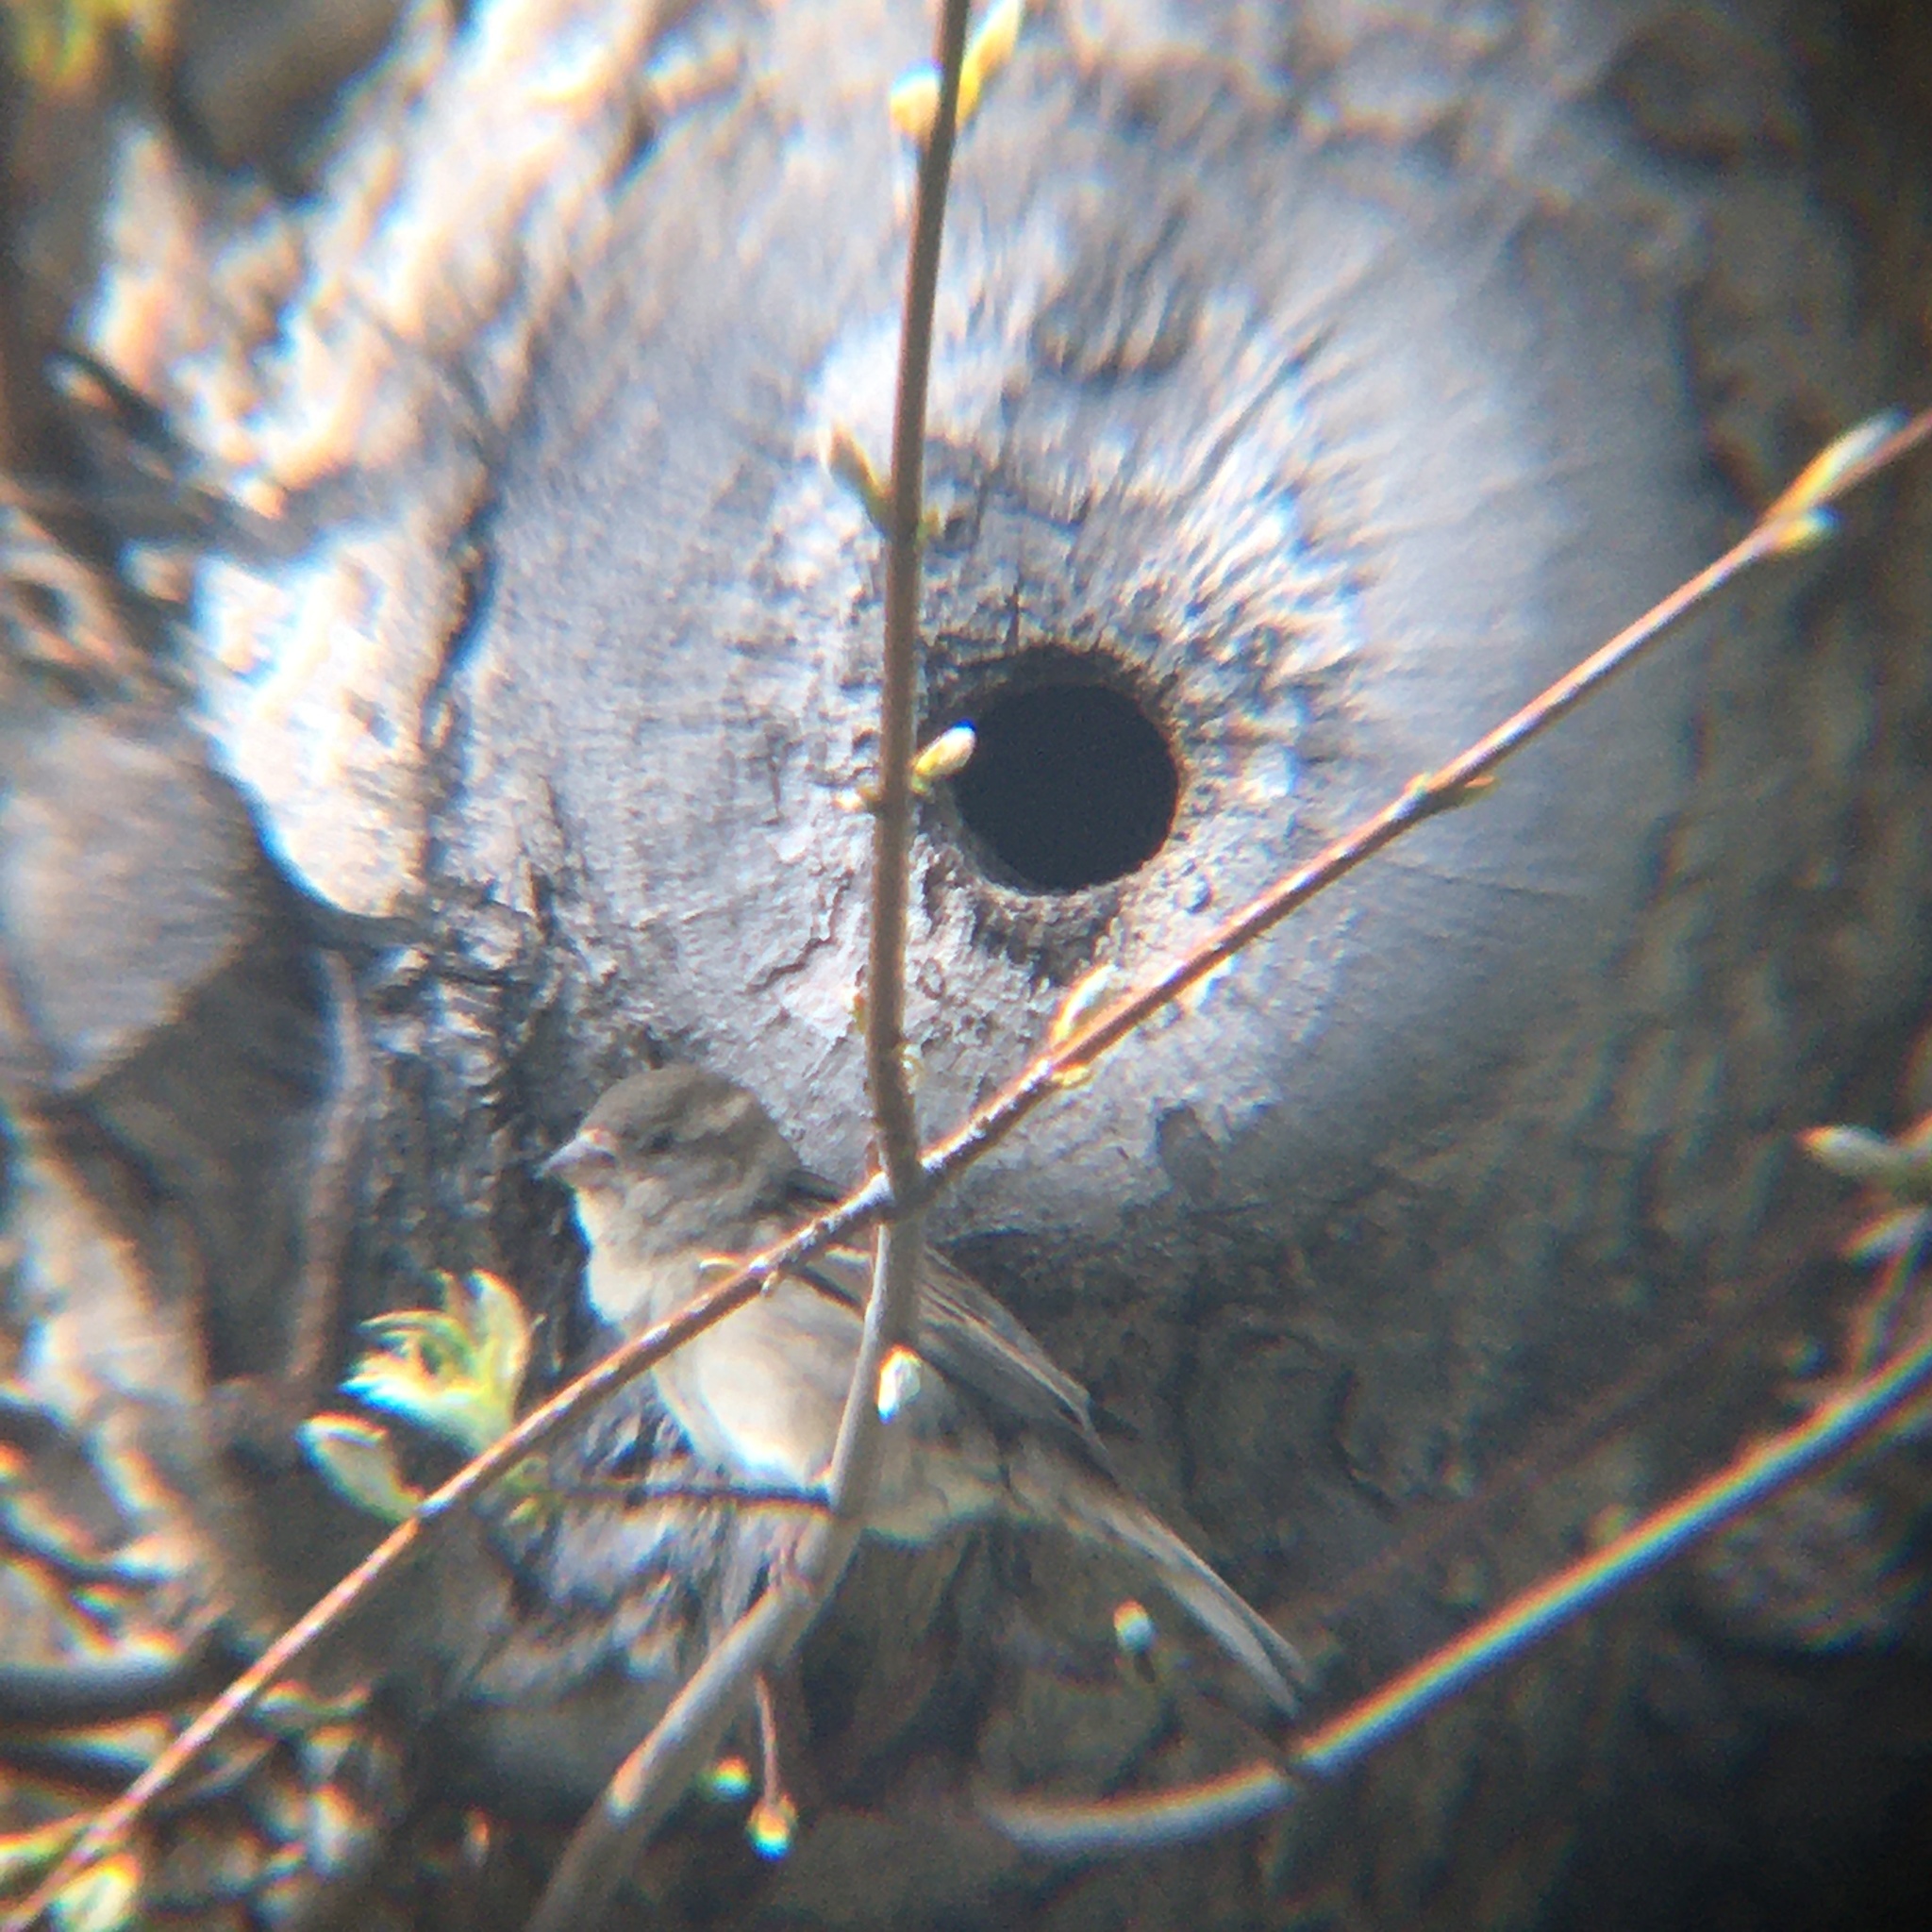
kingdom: Animalia
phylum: Chordata
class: Aves
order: Passeriformes
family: Passeridae
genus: Passer
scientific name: Passer domesticus
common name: House sparrow
